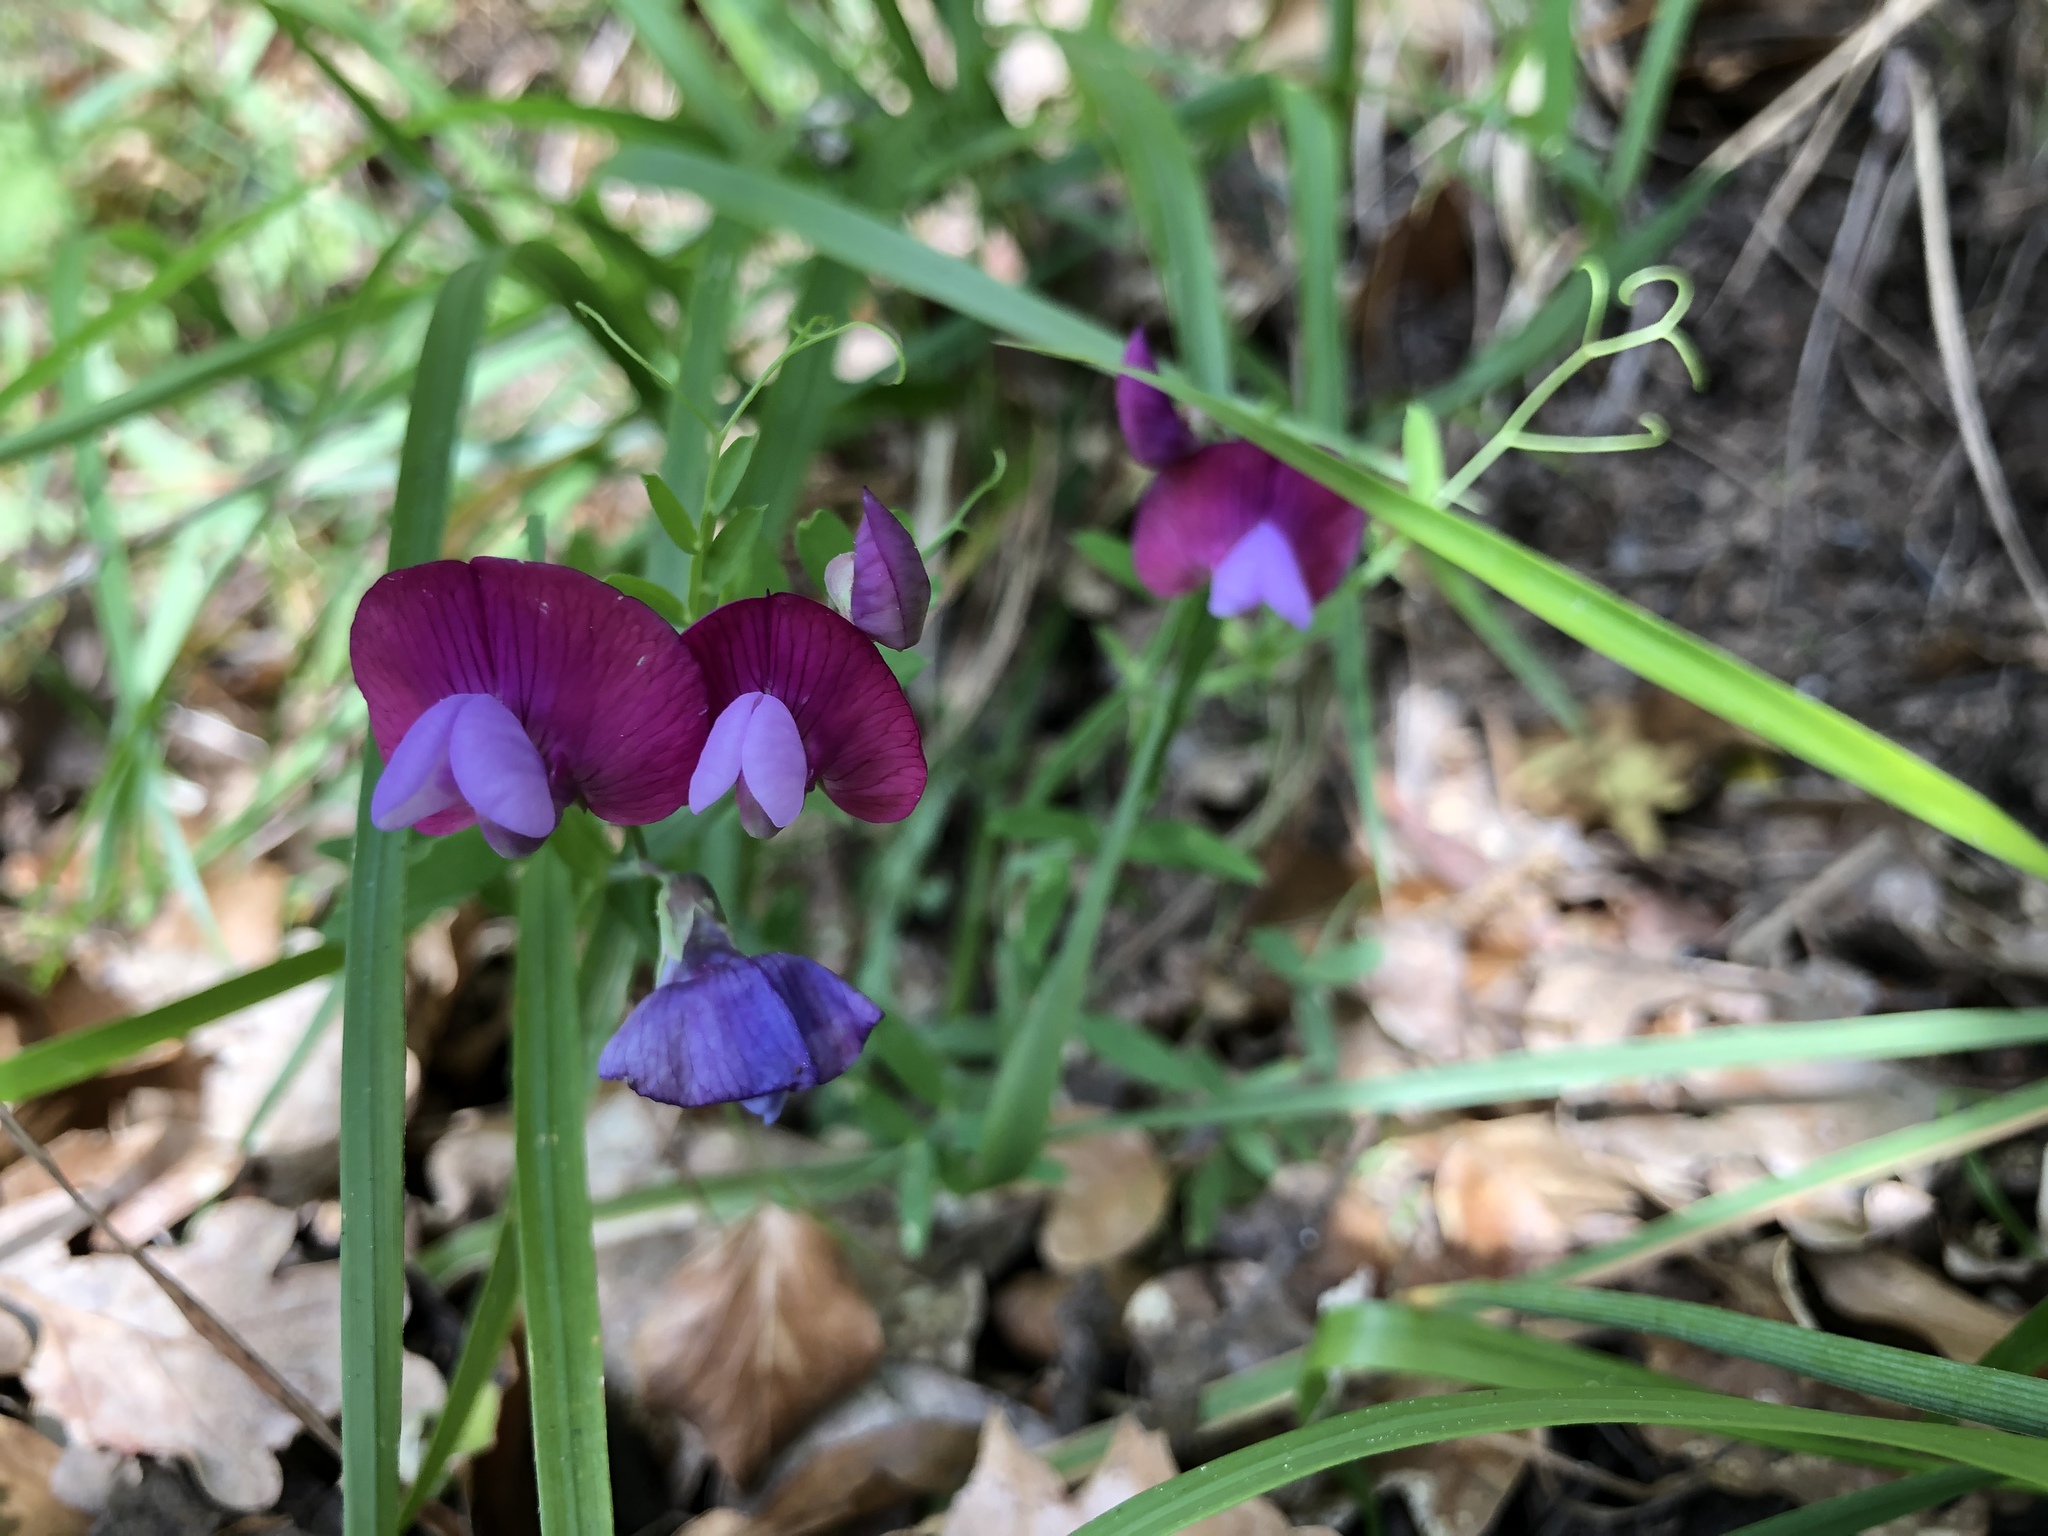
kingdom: Plantae
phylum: Tracheophyta
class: Magnoliopsida
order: Fabales
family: Fabaceae
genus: Lathyrus
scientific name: Lathyrus clymenum
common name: Spanish vetchling
